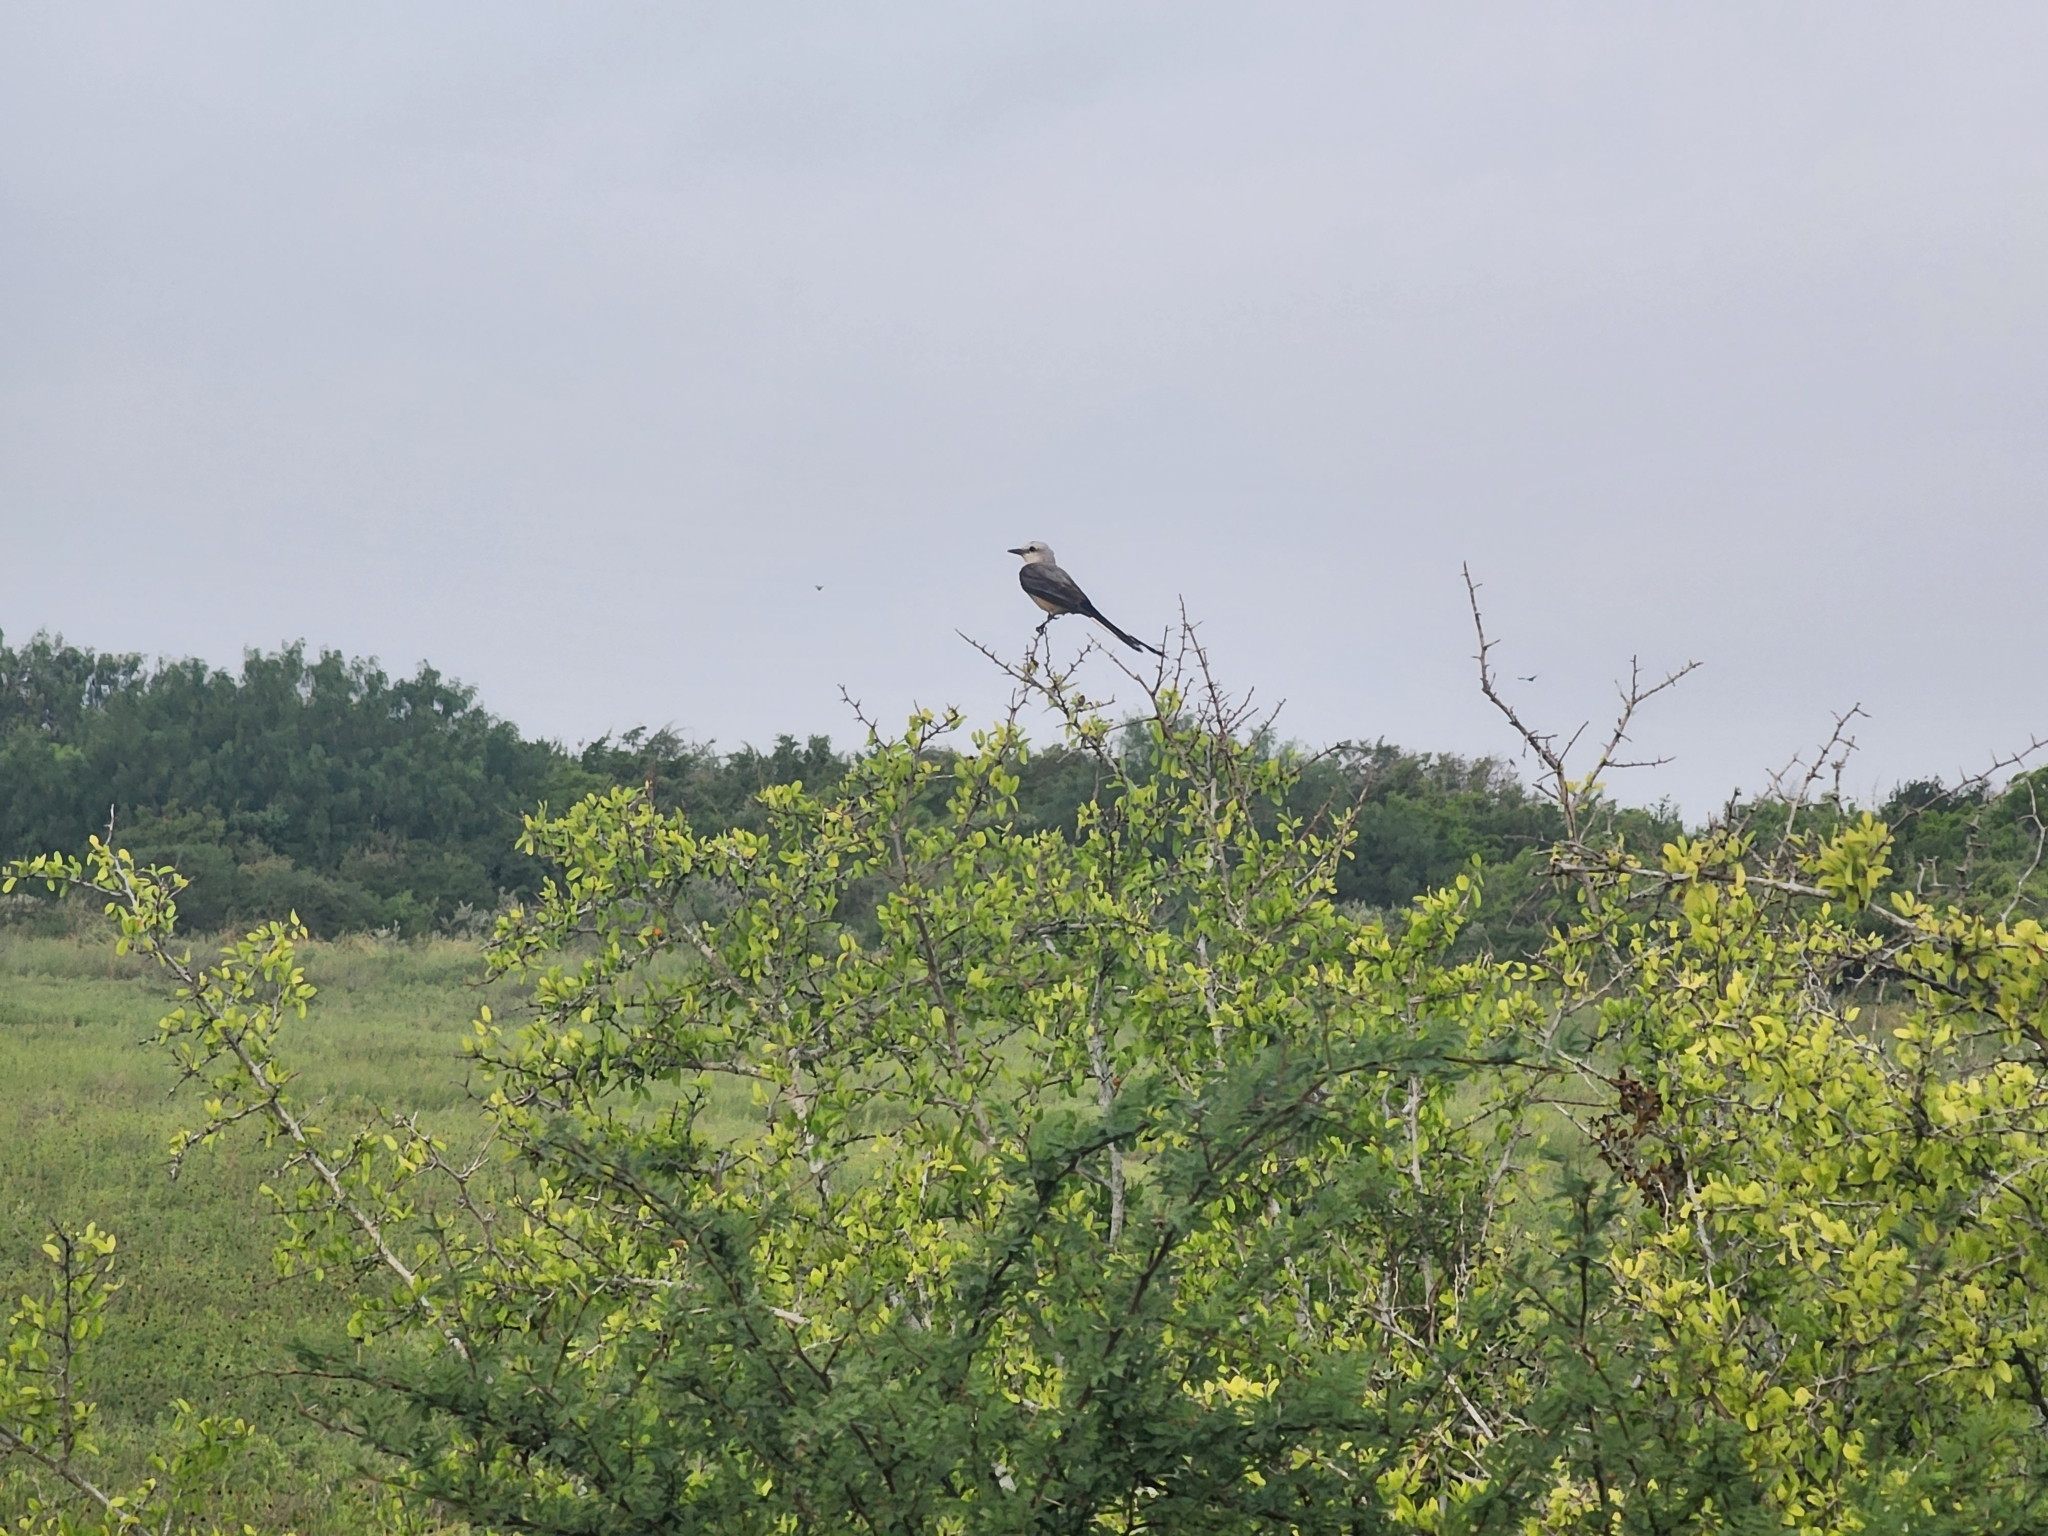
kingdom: Animalia
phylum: Chordata
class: Aves
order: Passeriformes
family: Tyrannidae
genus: Tyrannus
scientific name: Tyrannus forficatus
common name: Scissor-tailed flycatcher
